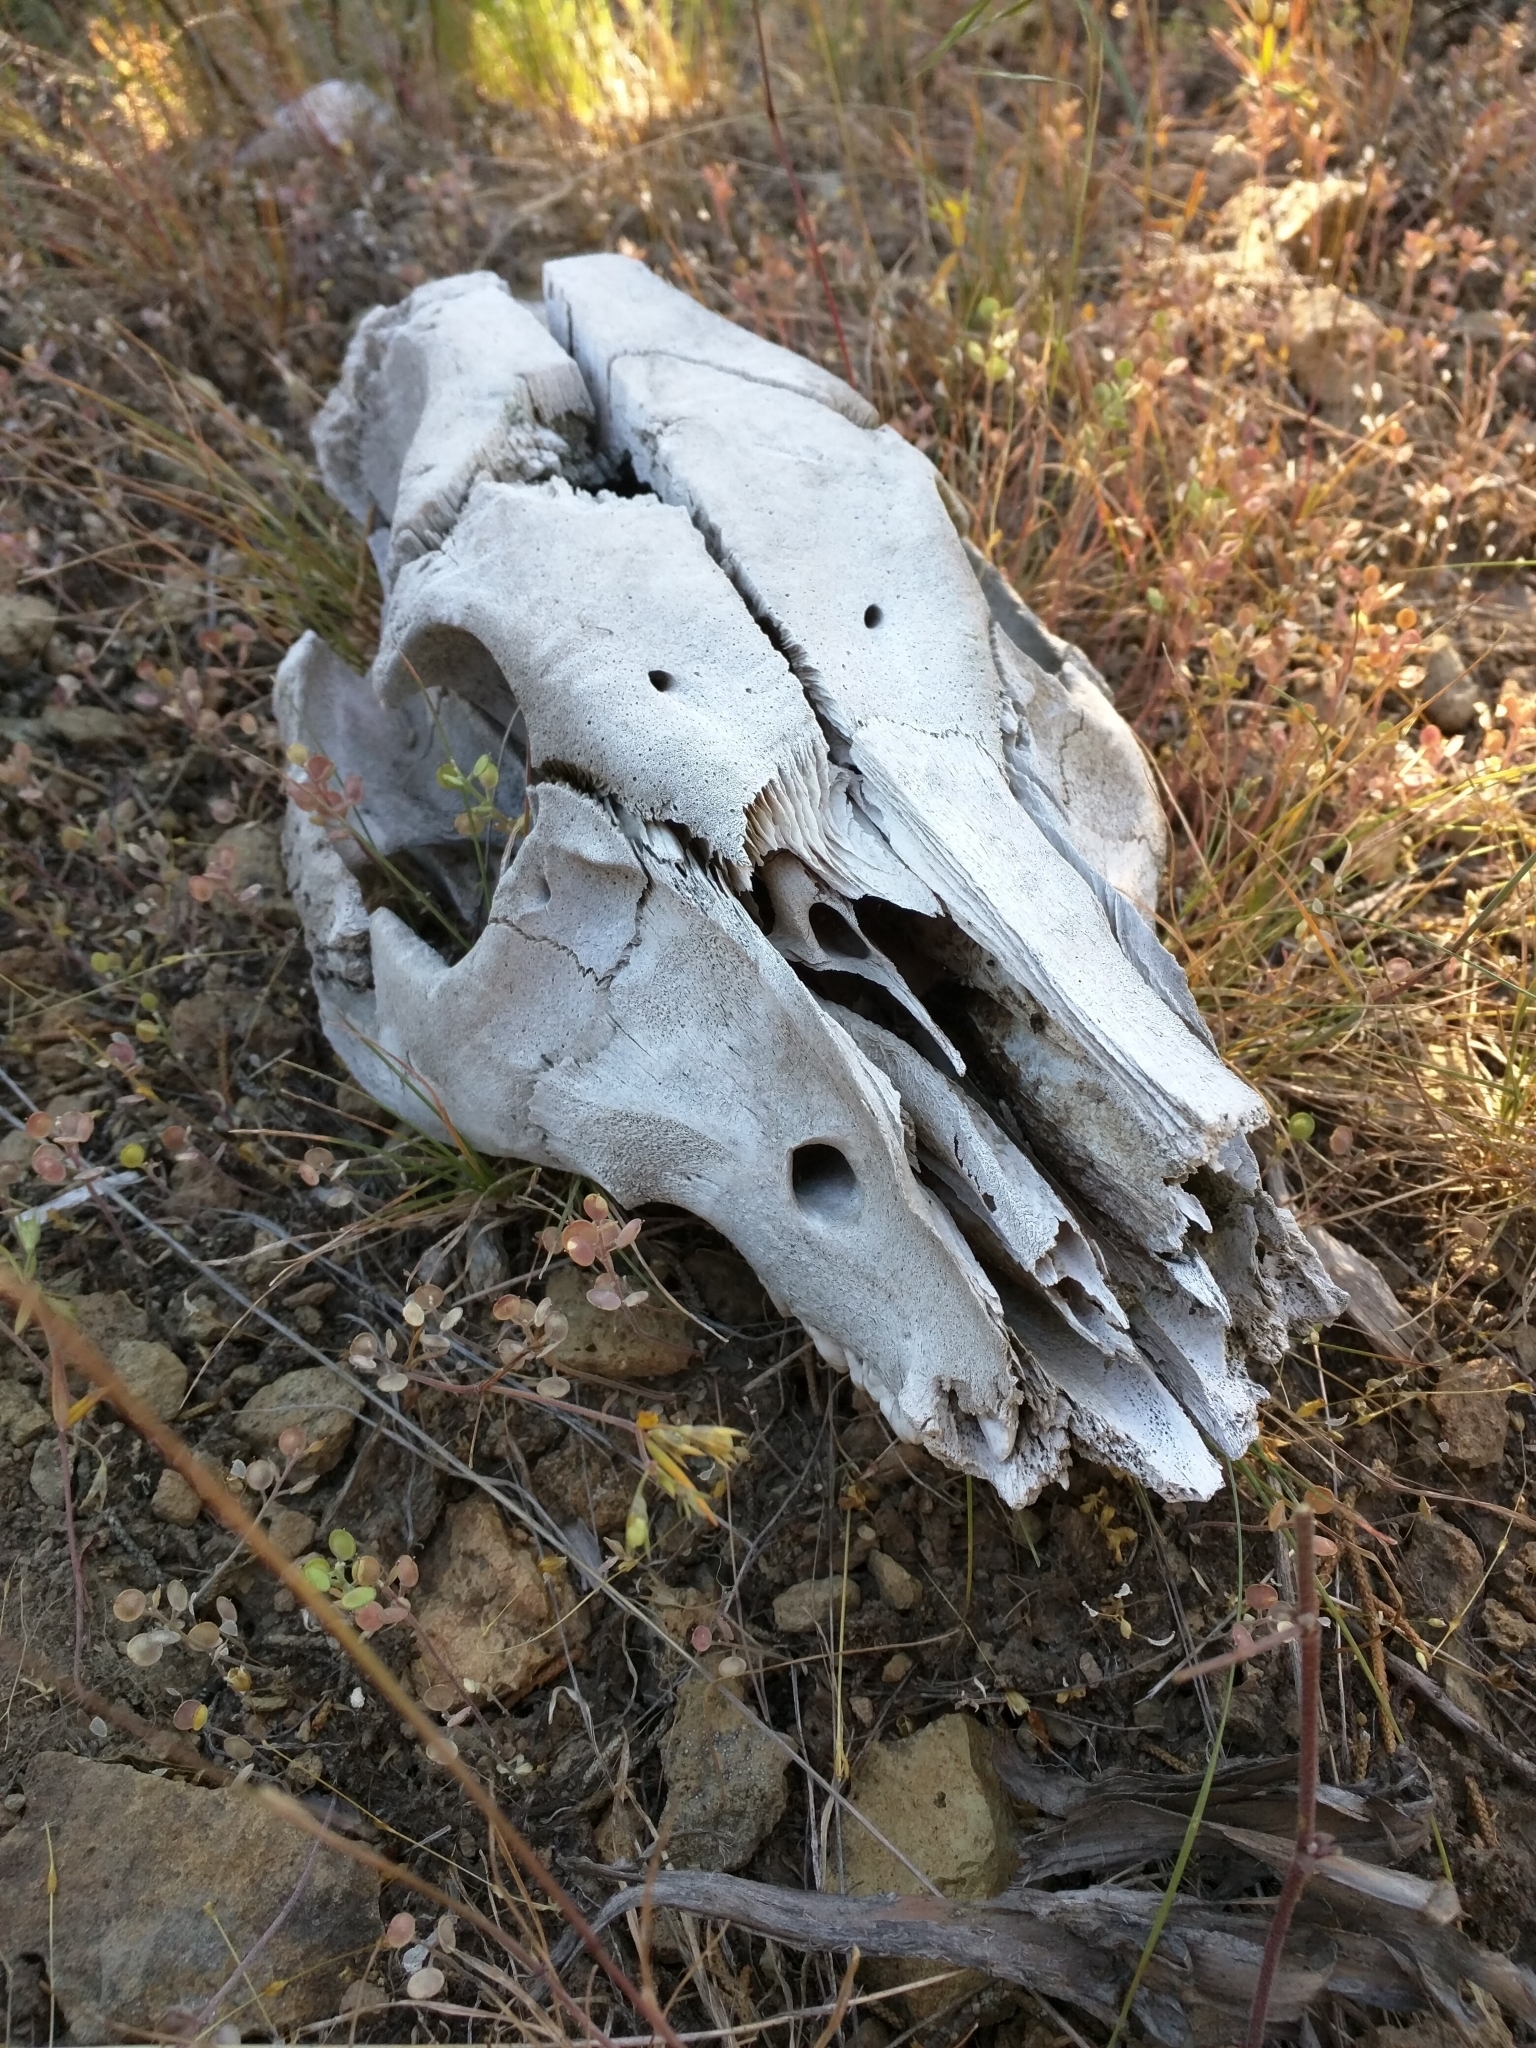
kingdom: Animalia
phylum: Chordata
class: Mammalia
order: Artiodactyla
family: Suidae
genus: Sus
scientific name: Sus scrofa
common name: Wild boar
